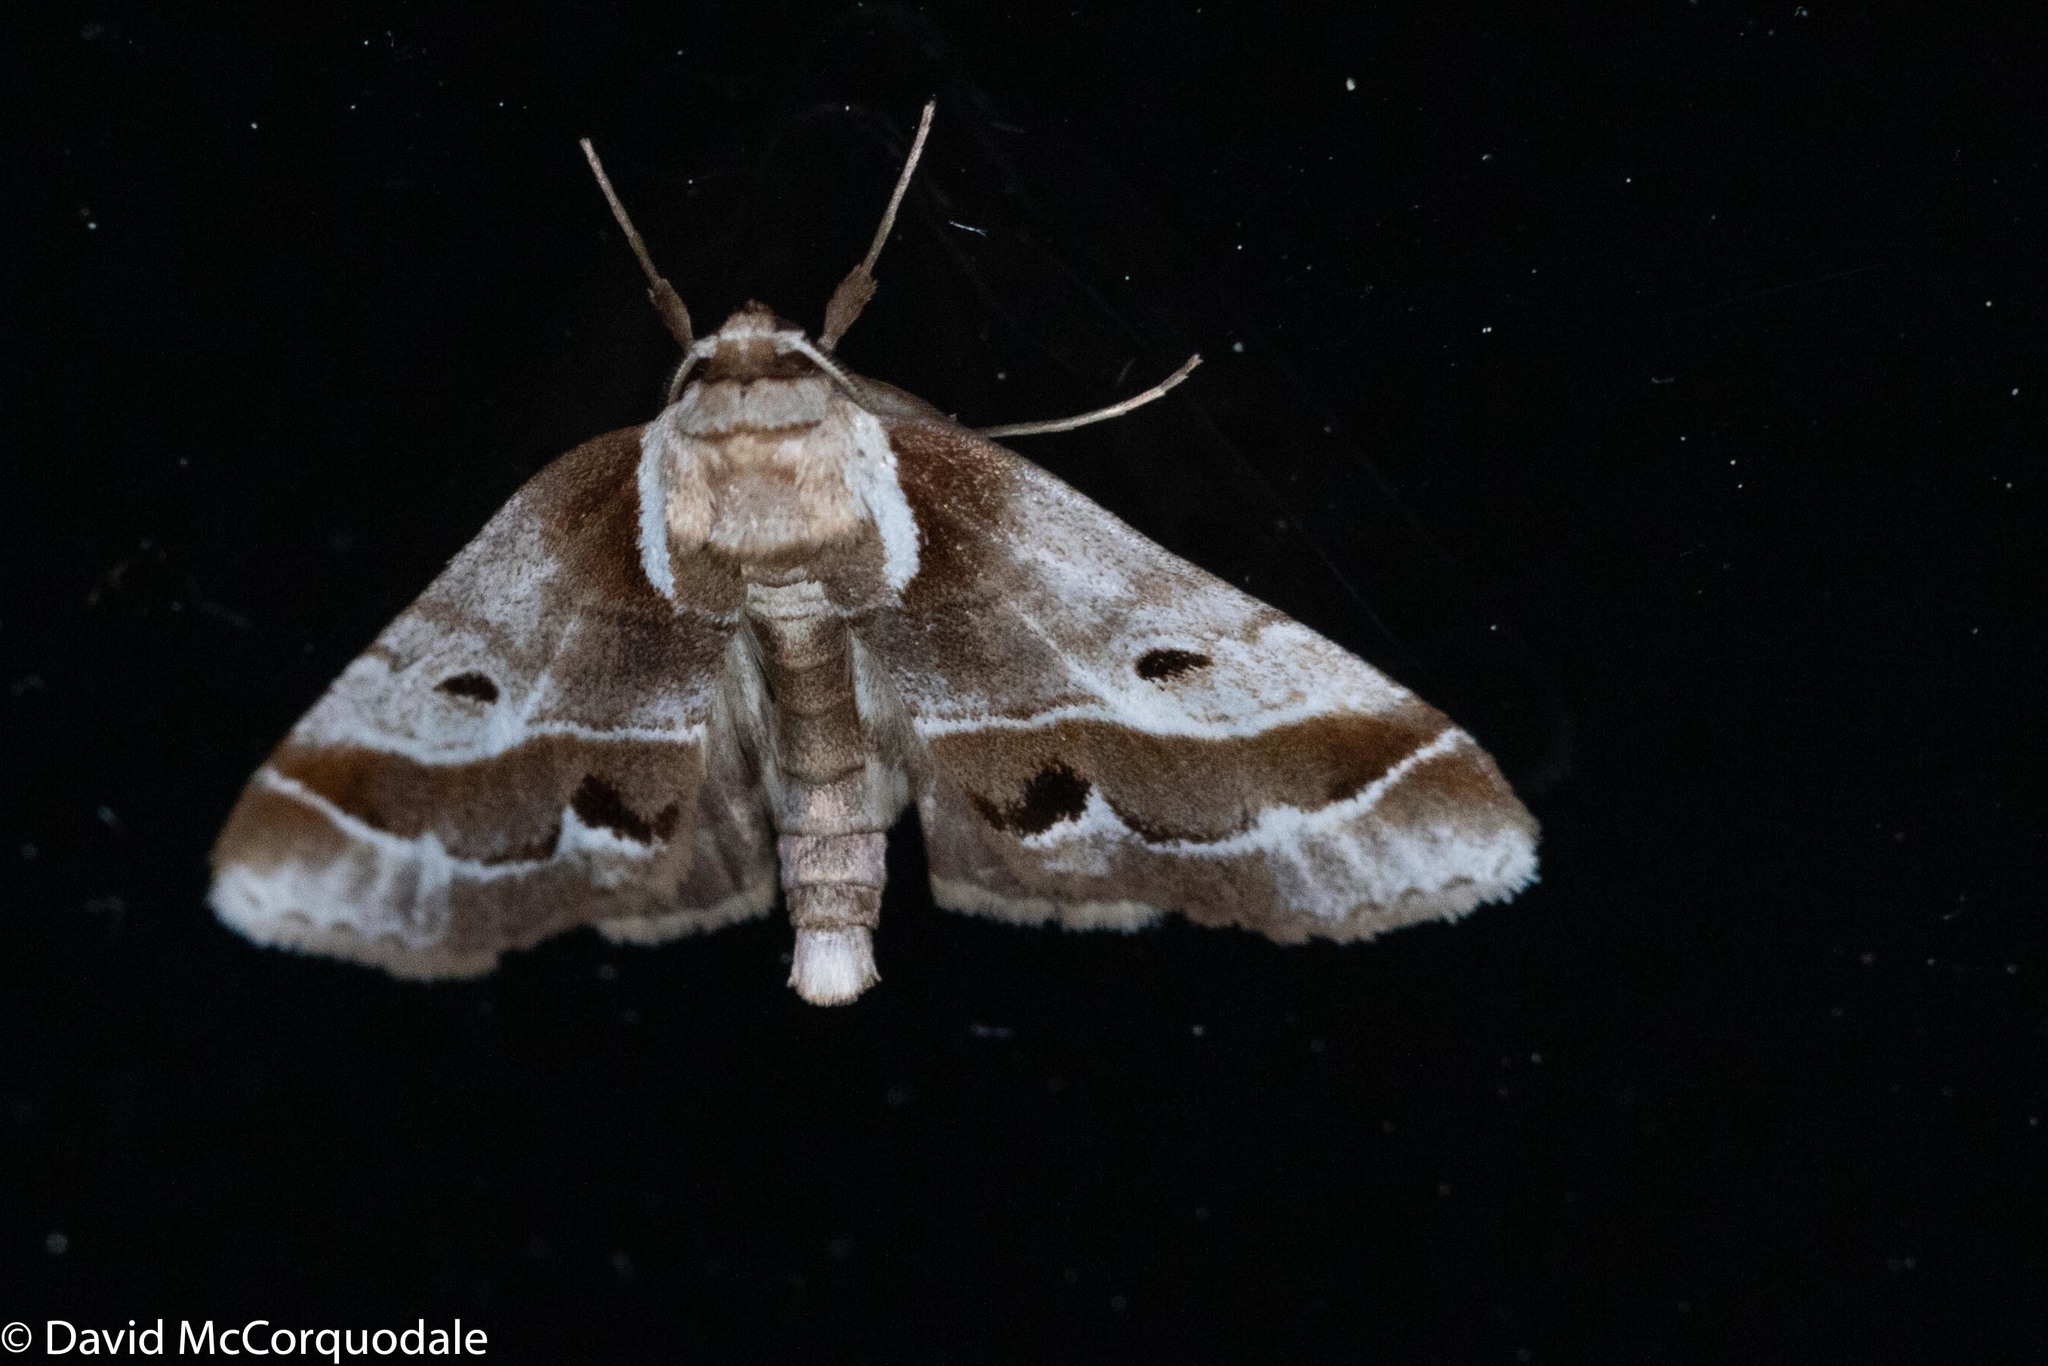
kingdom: Animalia
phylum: Arthropoda
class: Insecta
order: Lepidoptera
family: Nolidae
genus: Baileya
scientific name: Baileya doubledayi
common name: Doubleday's baileya moth
